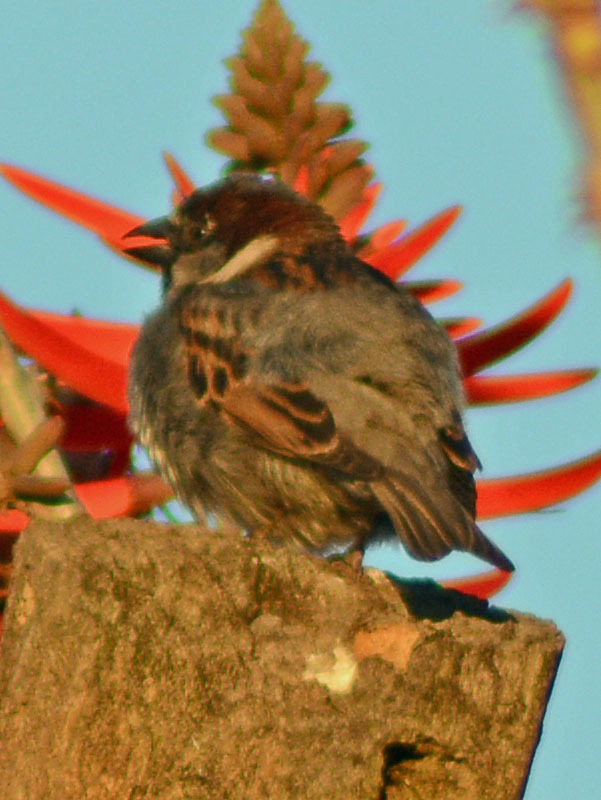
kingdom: Animalia
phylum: Chordata
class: Aves
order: Passeriformes
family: Passeridae
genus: Passer
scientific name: Passer domesticus
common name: House sparrow
